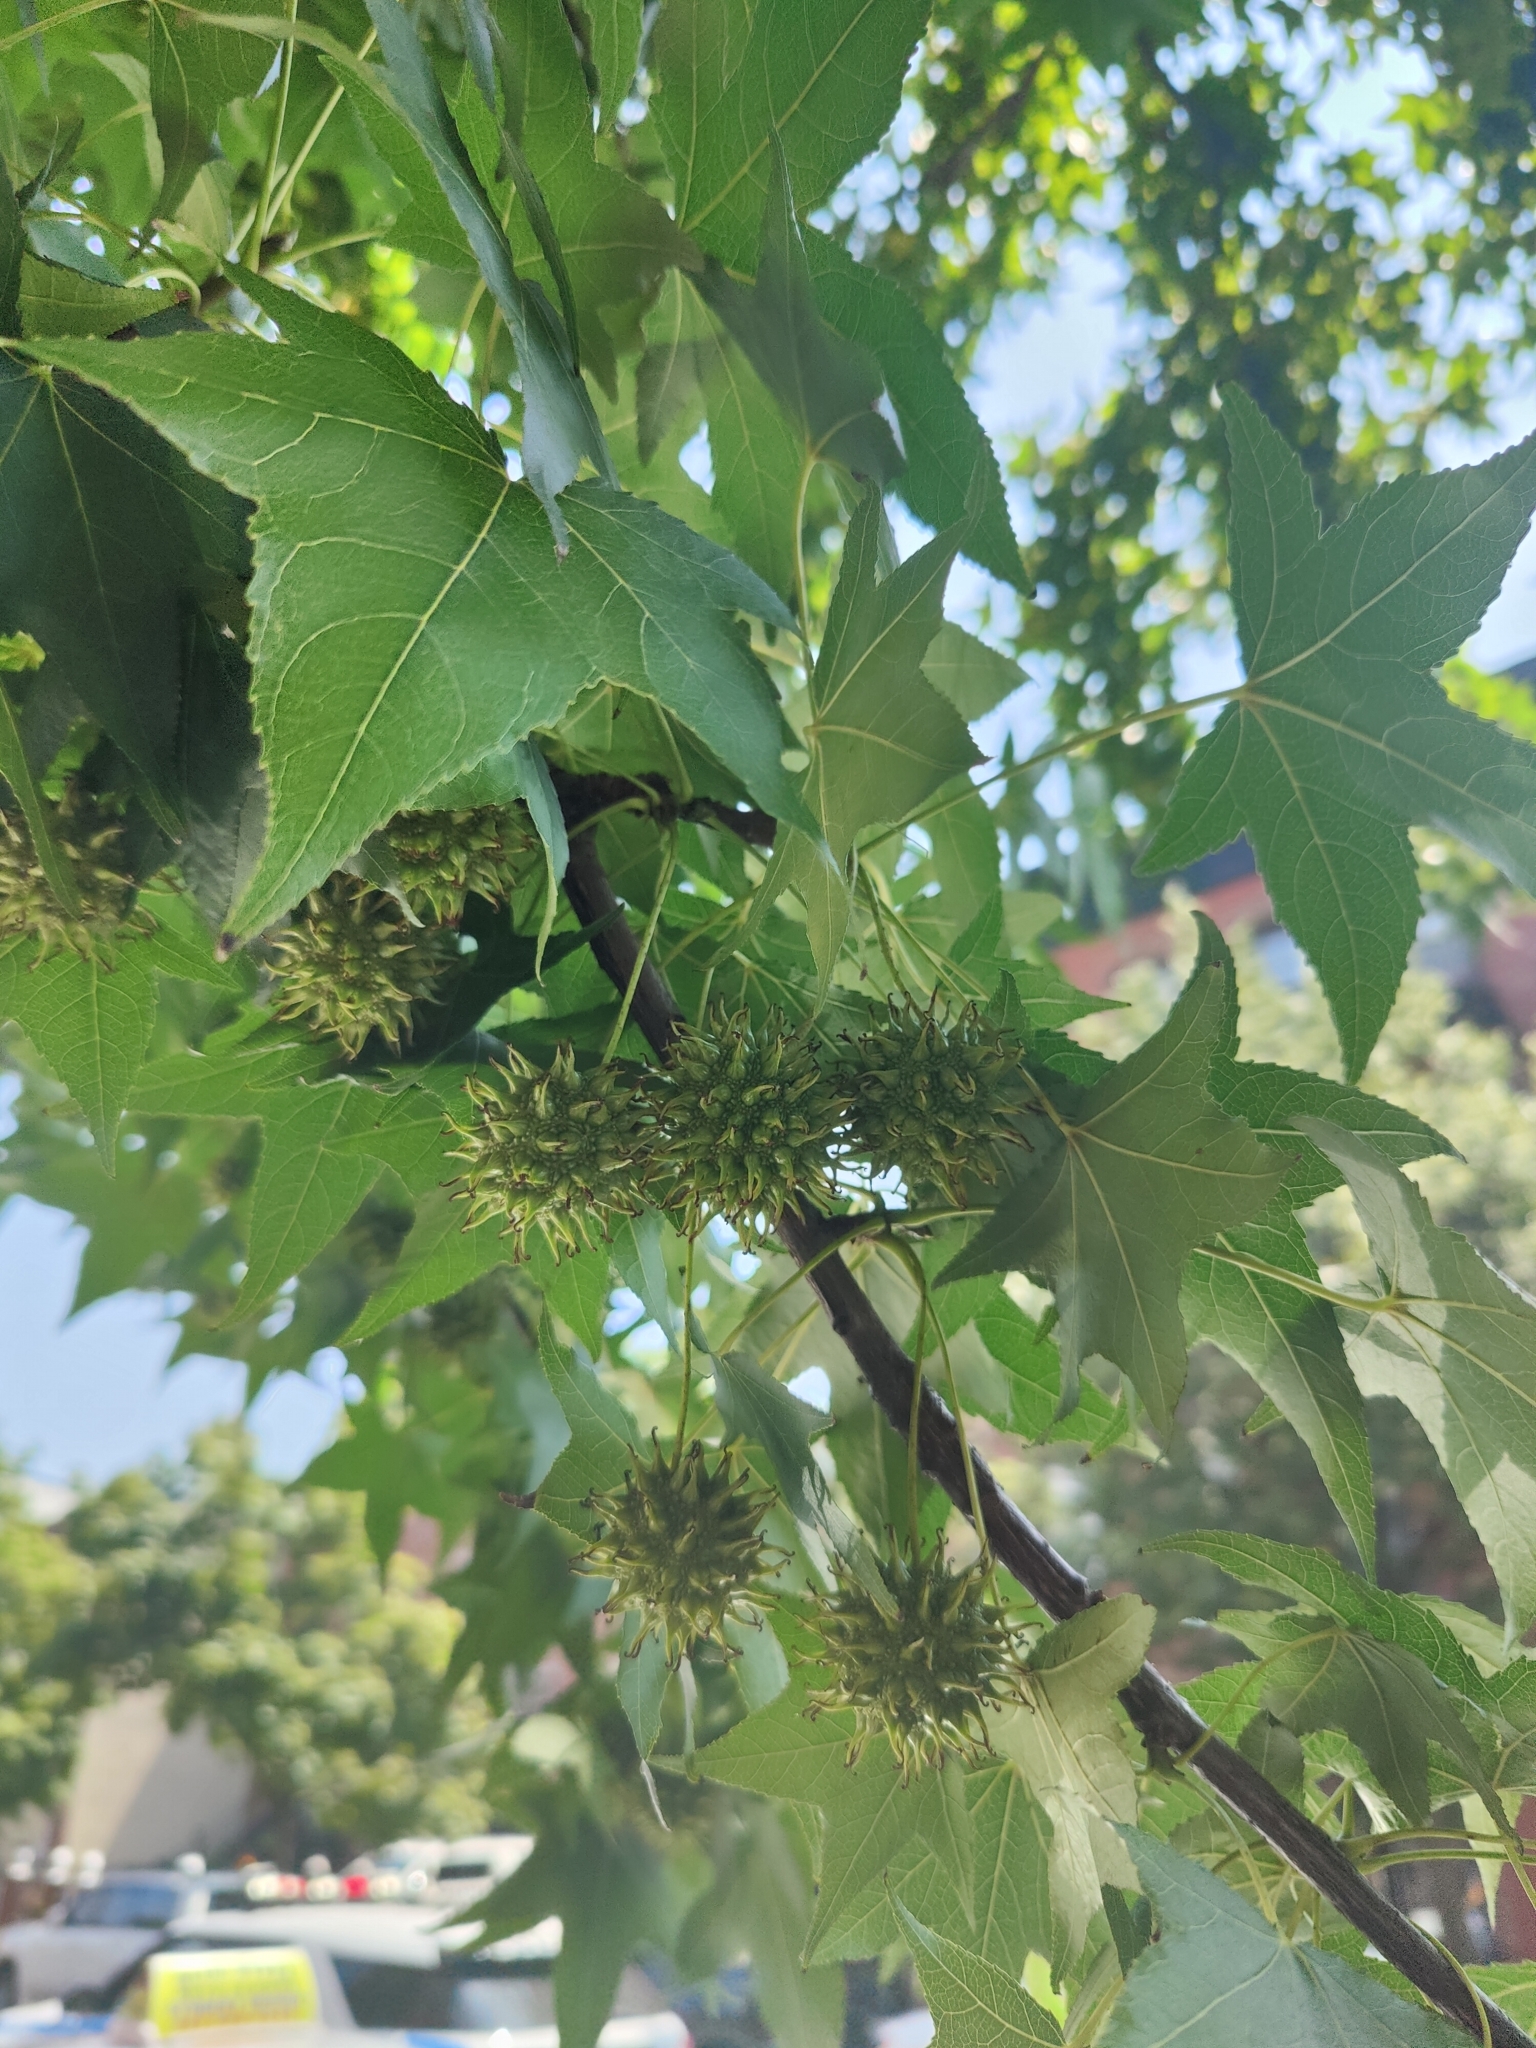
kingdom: Plantae
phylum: Tracheophyta
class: Magnoliopsida
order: Saxifragales
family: Altingiaceae
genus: Liquidambar
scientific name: Liquidambar styraciflua
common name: Sweet gum
